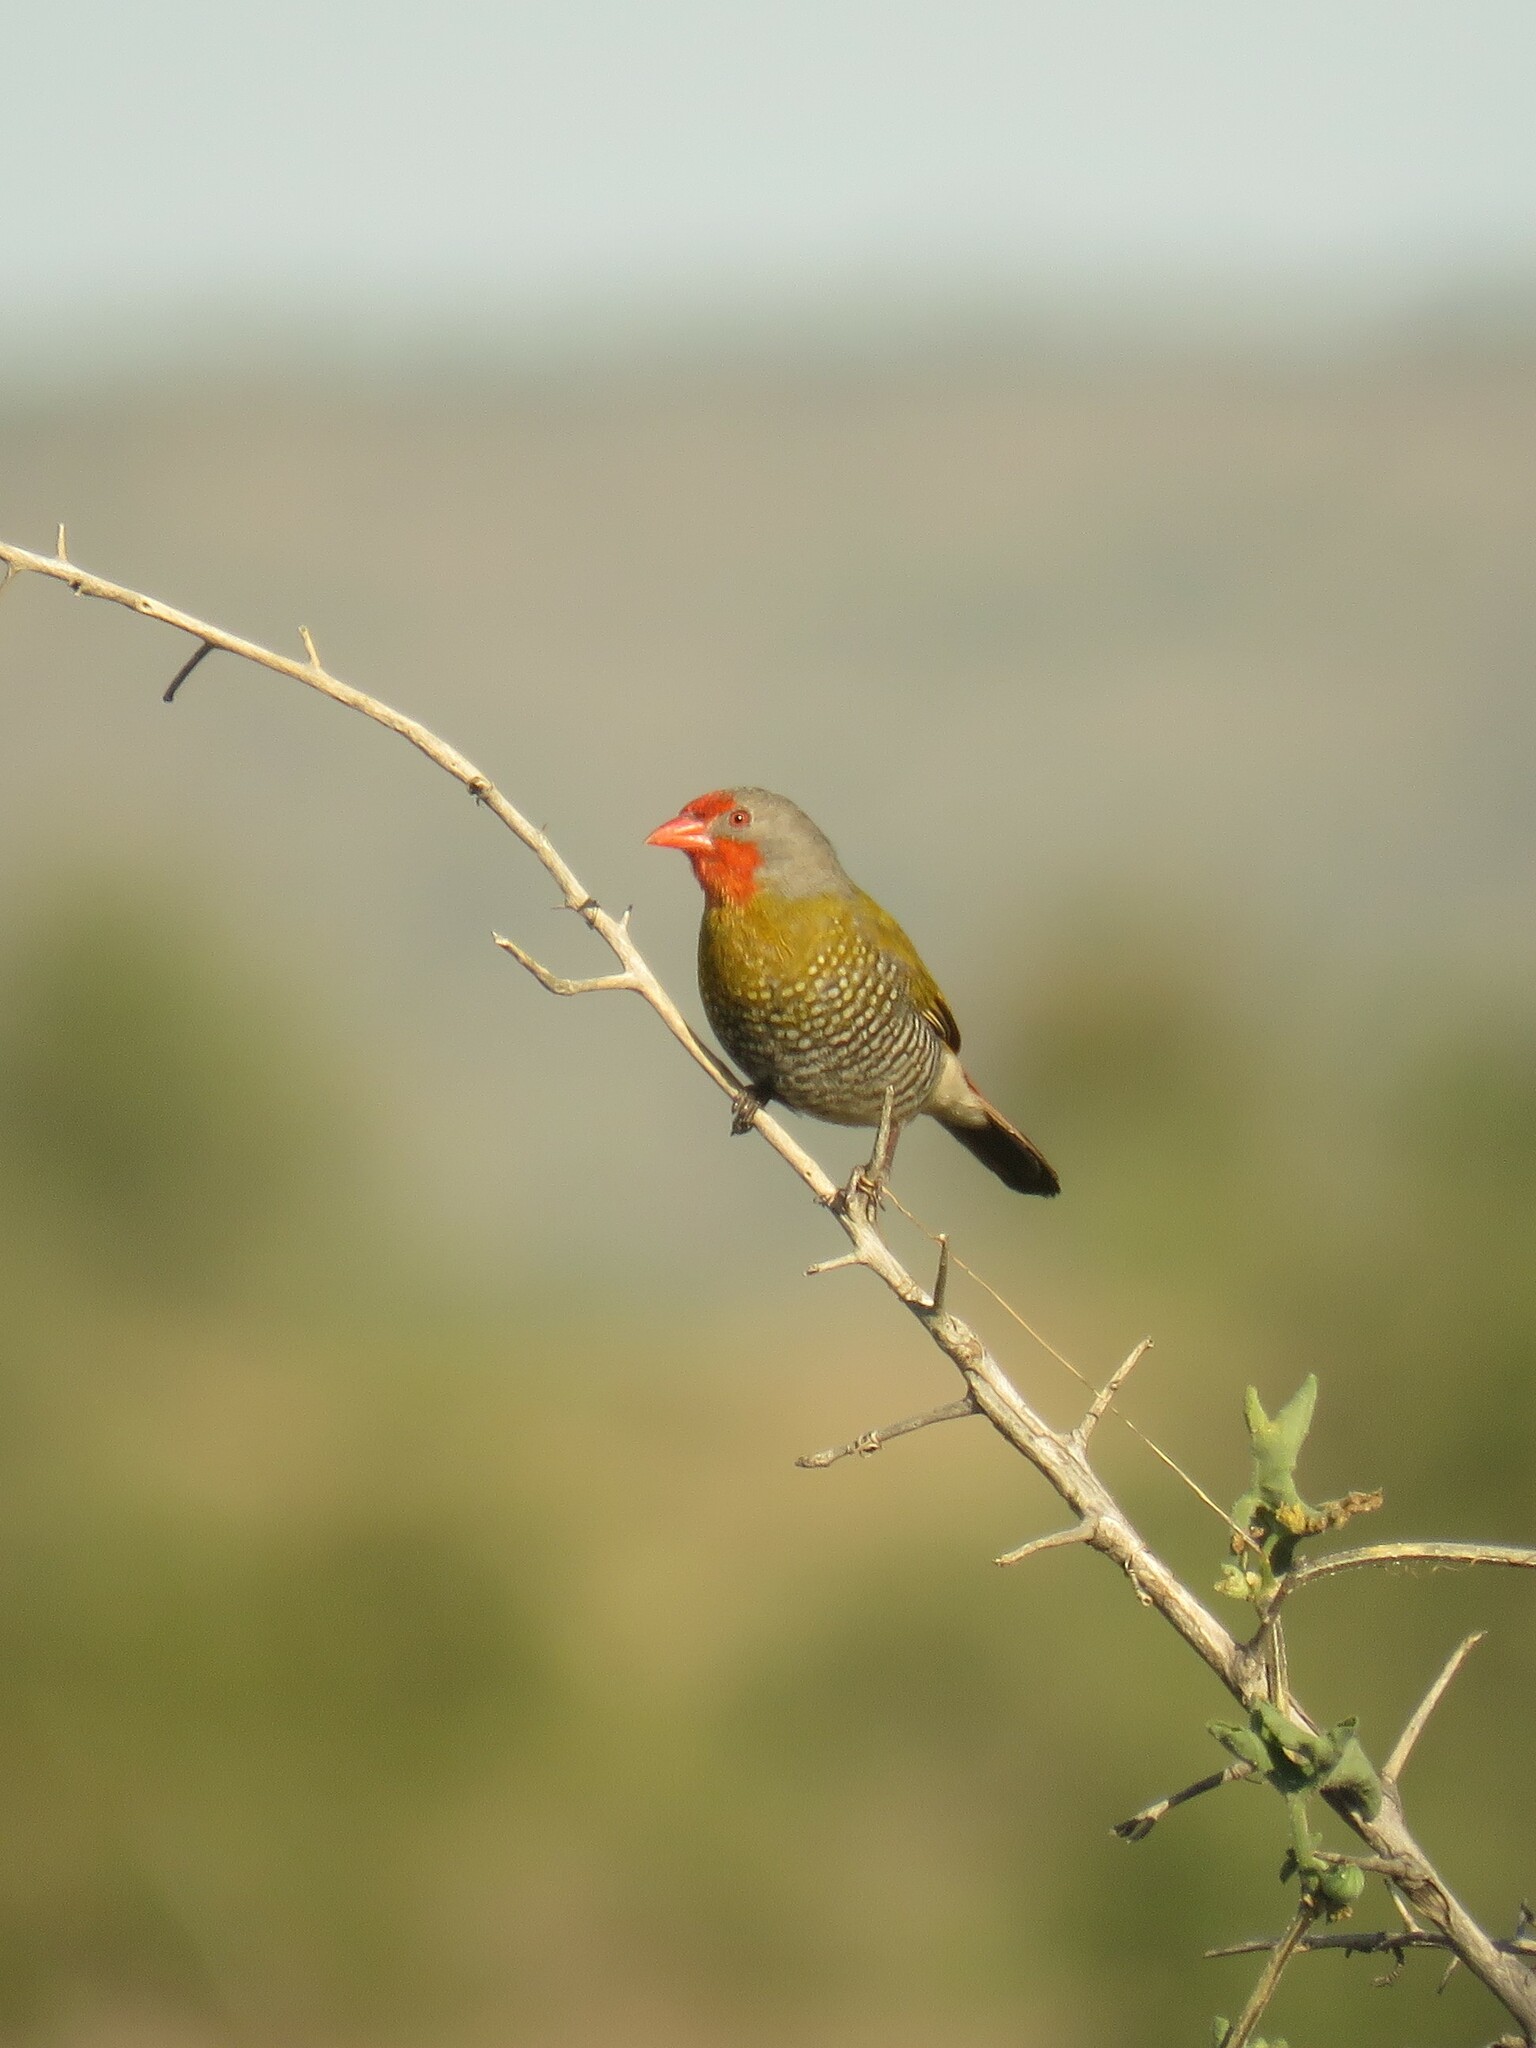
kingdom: Animalia
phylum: Chordata
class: Aves
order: Passeriformes
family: Estrildidae
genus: Pytilia
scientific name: Pytilia melba
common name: Green-winged pytilia
